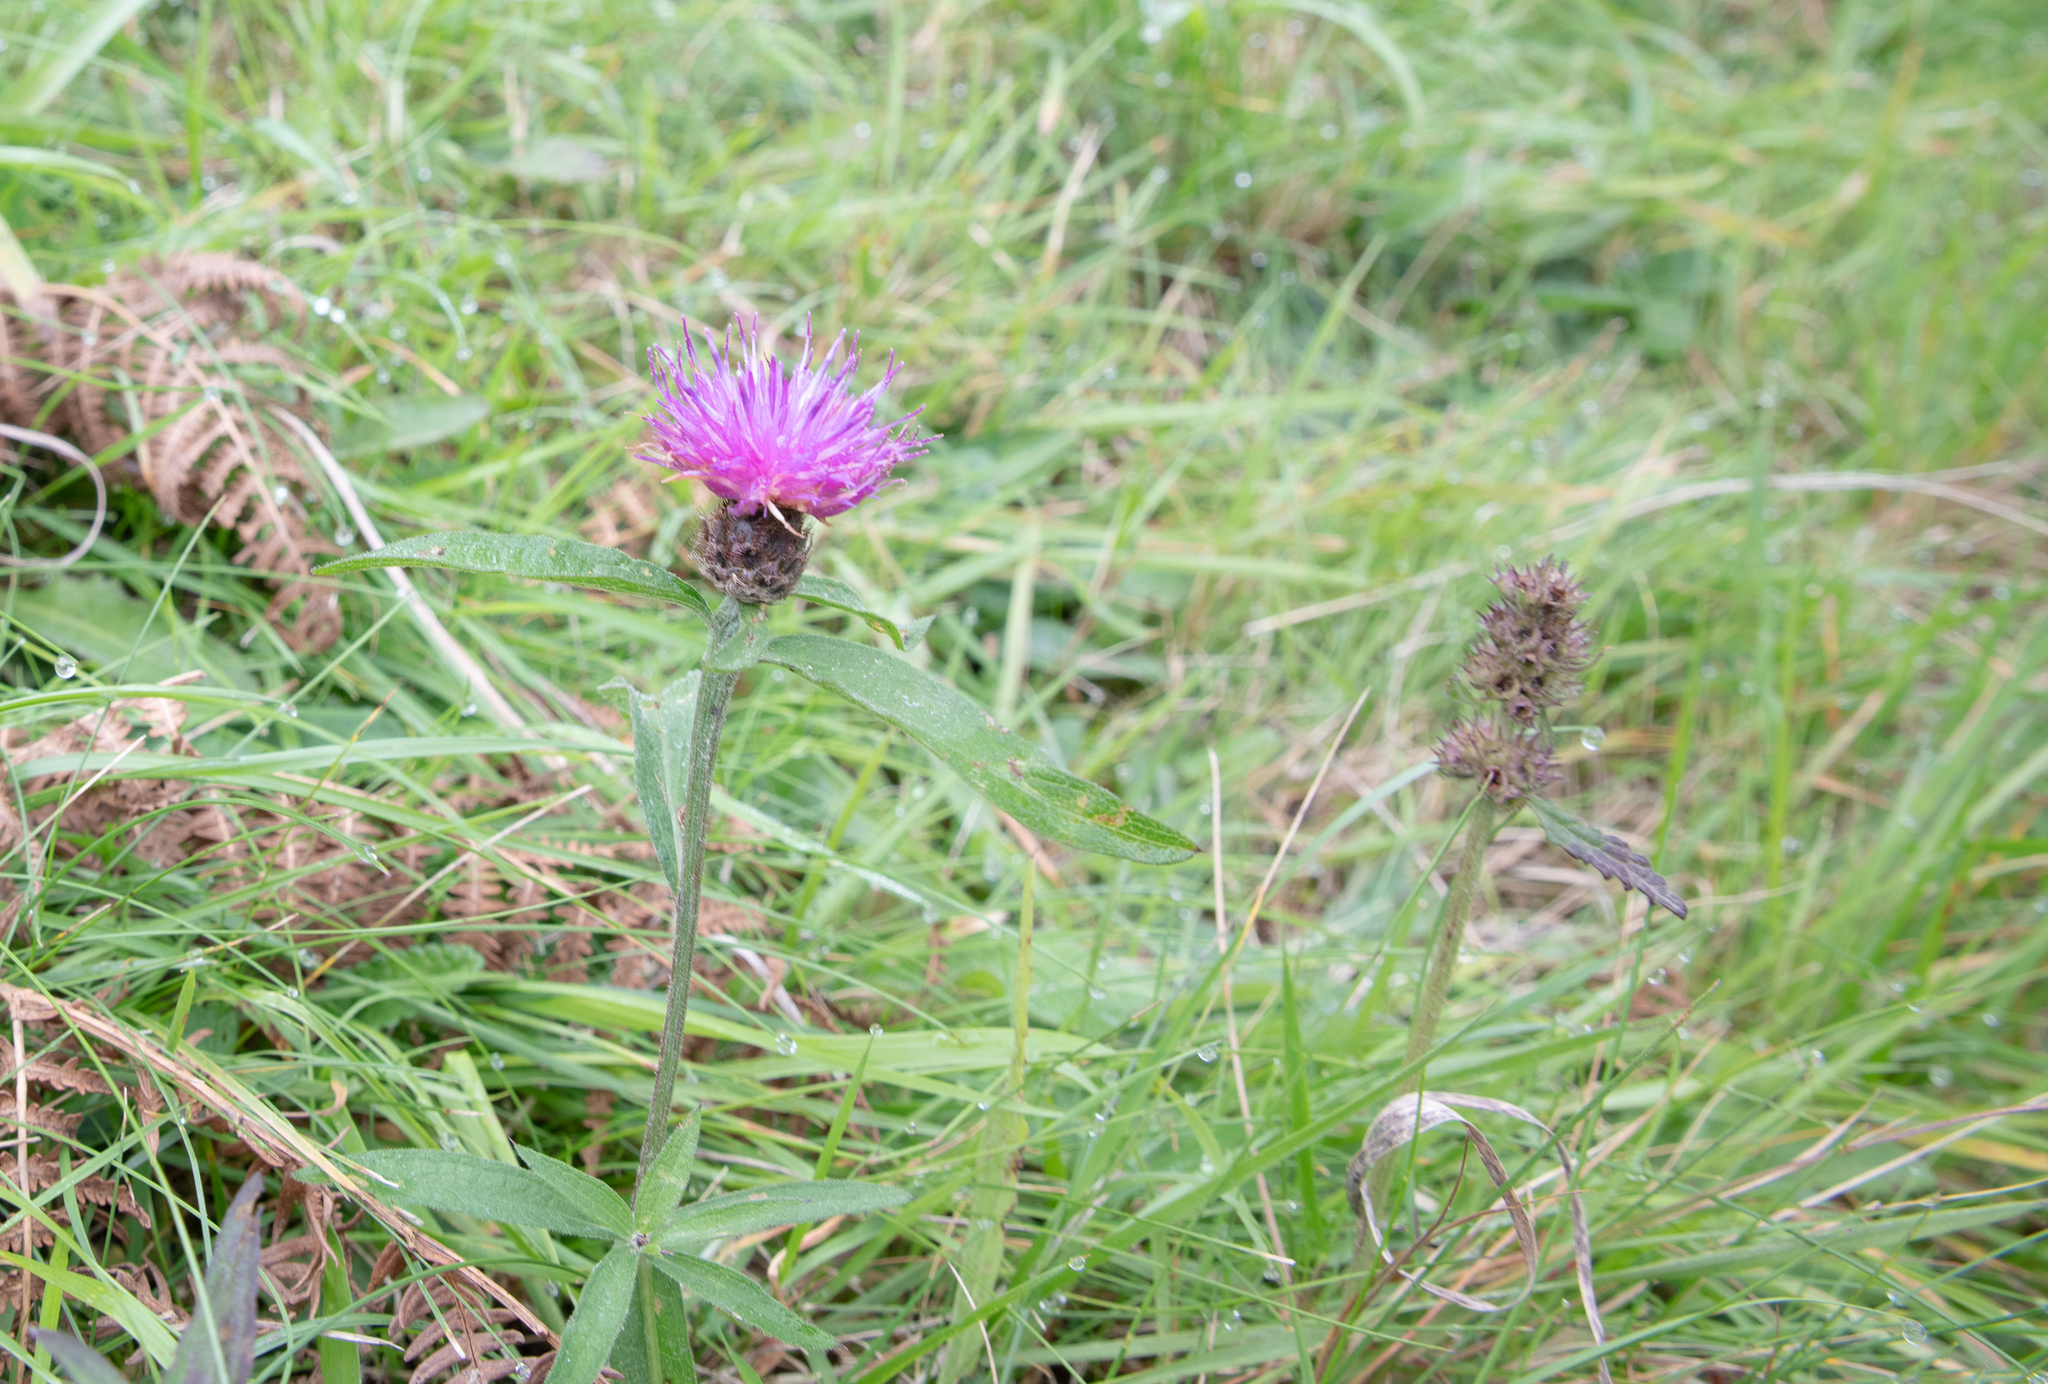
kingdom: Plantae
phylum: Tracheophyta
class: Magnoliopsida
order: Asterales
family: Asteraceae
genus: Centaurea
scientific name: Centaurea nigra
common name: Lesser knapweed
